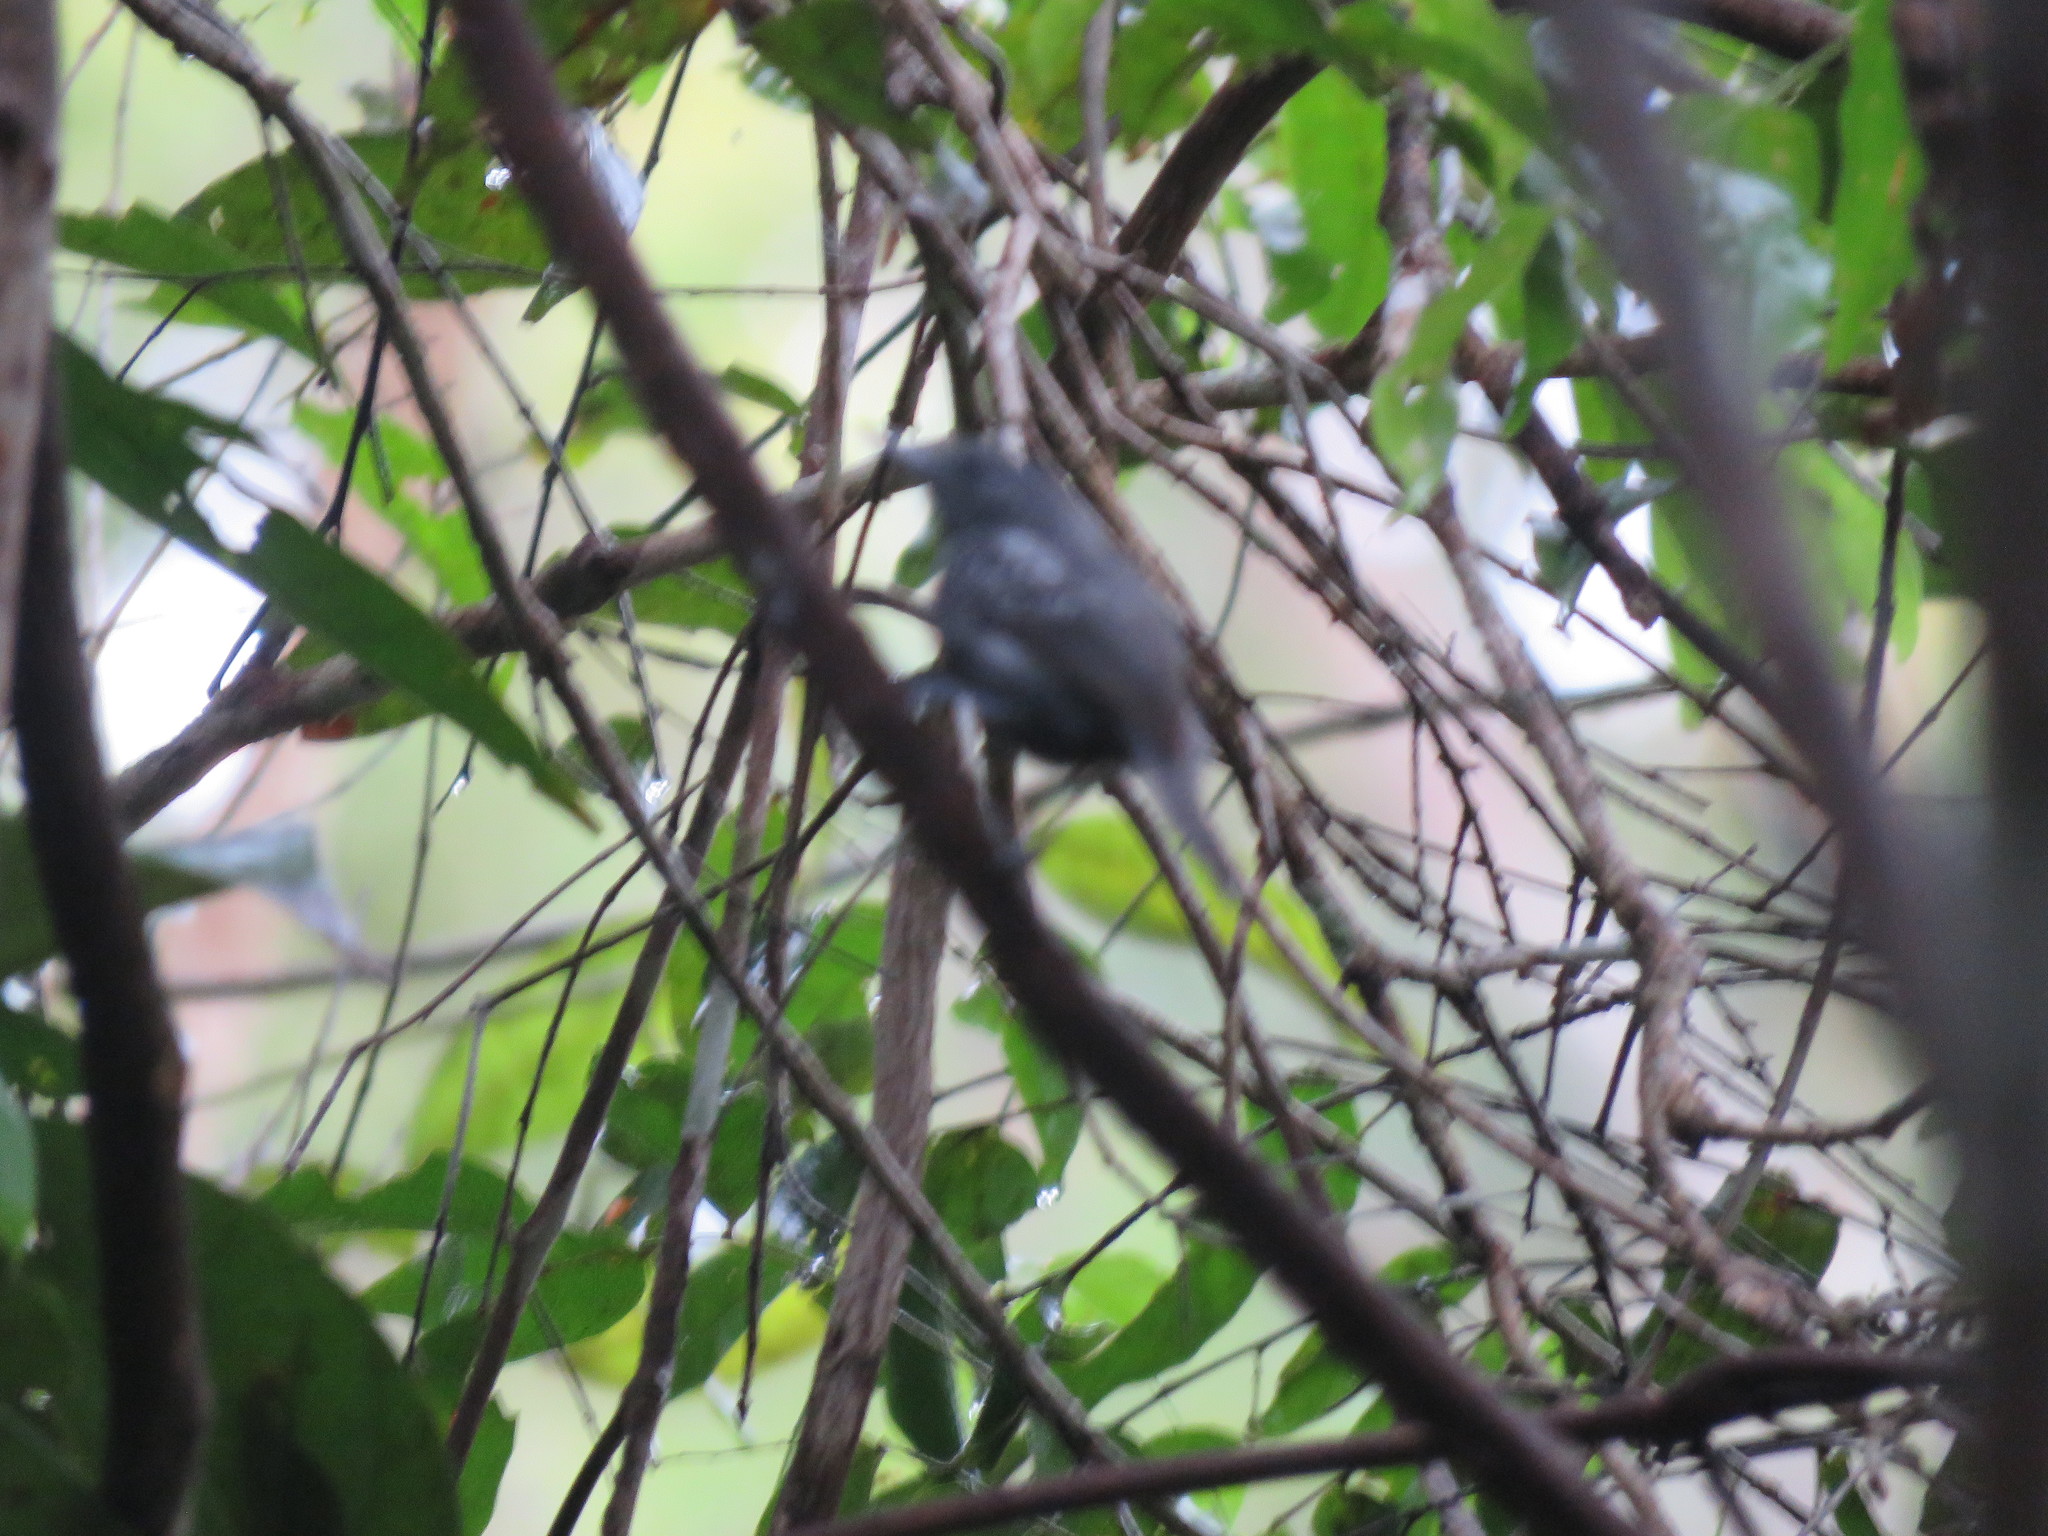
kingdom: Animalia
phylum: Chordata
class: Aves
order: Passeriformes
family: Thamnophilidae
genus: Myrmotherula
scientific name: Myrmotherula menetriesii
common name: Grey antwren
